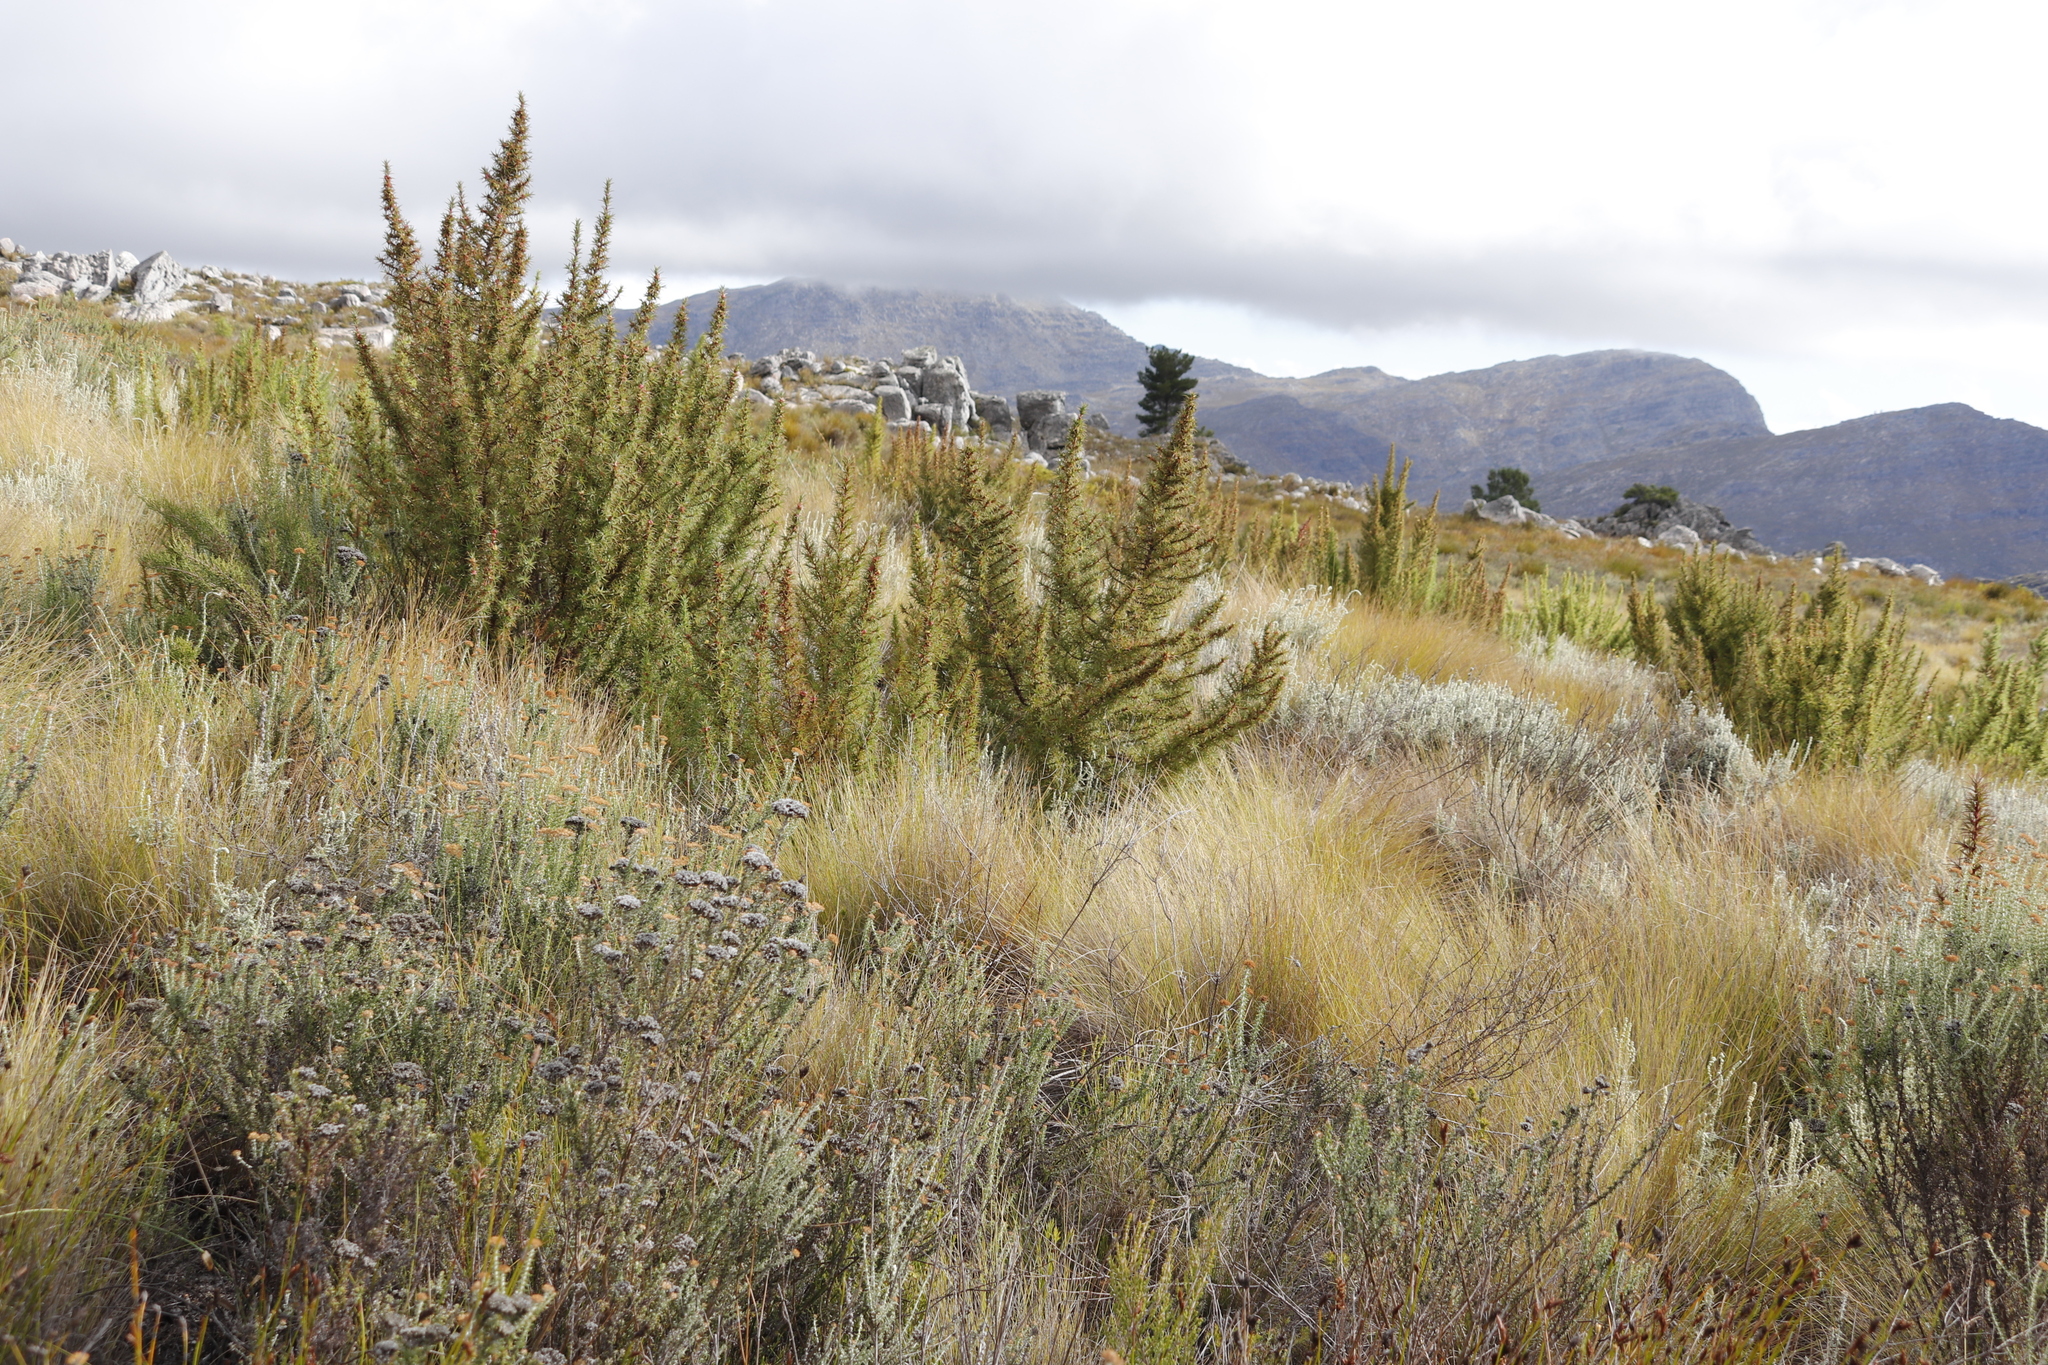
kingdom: Plantae
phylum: Tracheophyta
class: Magnoliopsida
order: Rosales
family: Rosaceae
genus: Cliffortia
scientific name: Cliffortia dregeana
